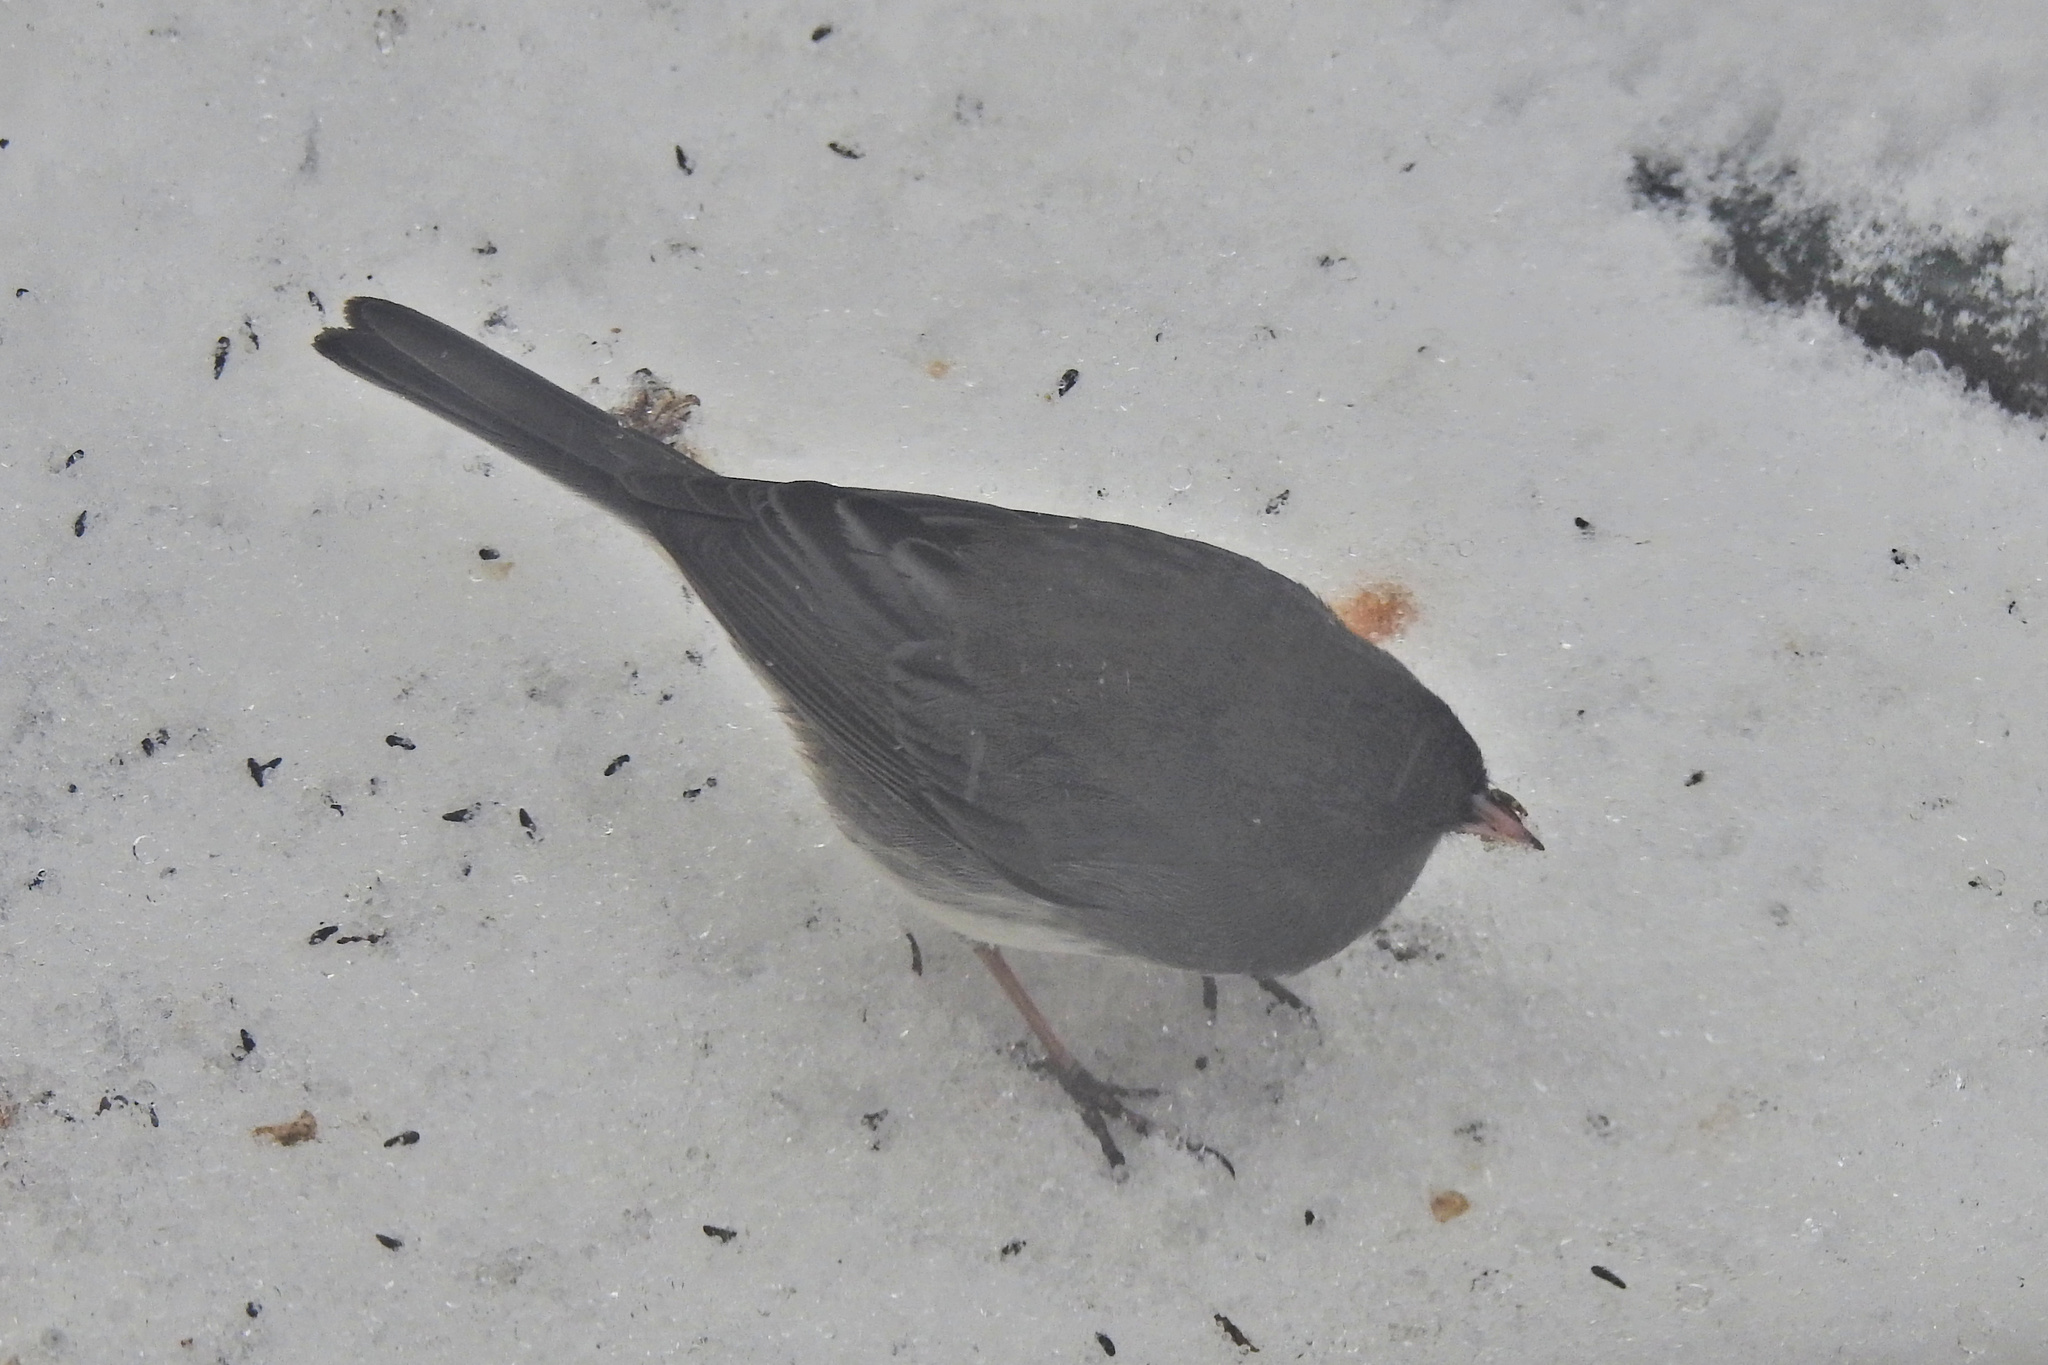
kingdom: Animalia
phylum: Chordata
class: Aves
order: Passeriformes
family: Passerellidae
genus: Junco
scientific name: Junco hyemalis
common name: Dark-eyed junco
